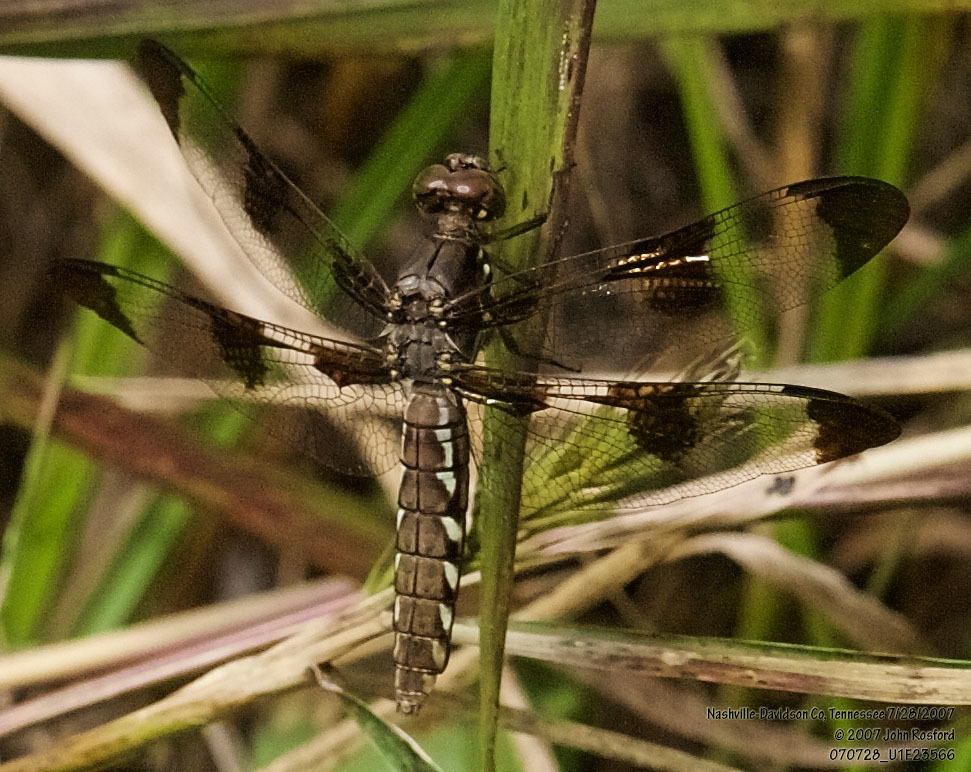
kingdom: Animalia
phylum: Arthropoda
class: Insecta
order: Odonata
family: Libellulidae
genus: Plathemis
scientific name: Plathemis lydia
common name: Common whitetail
